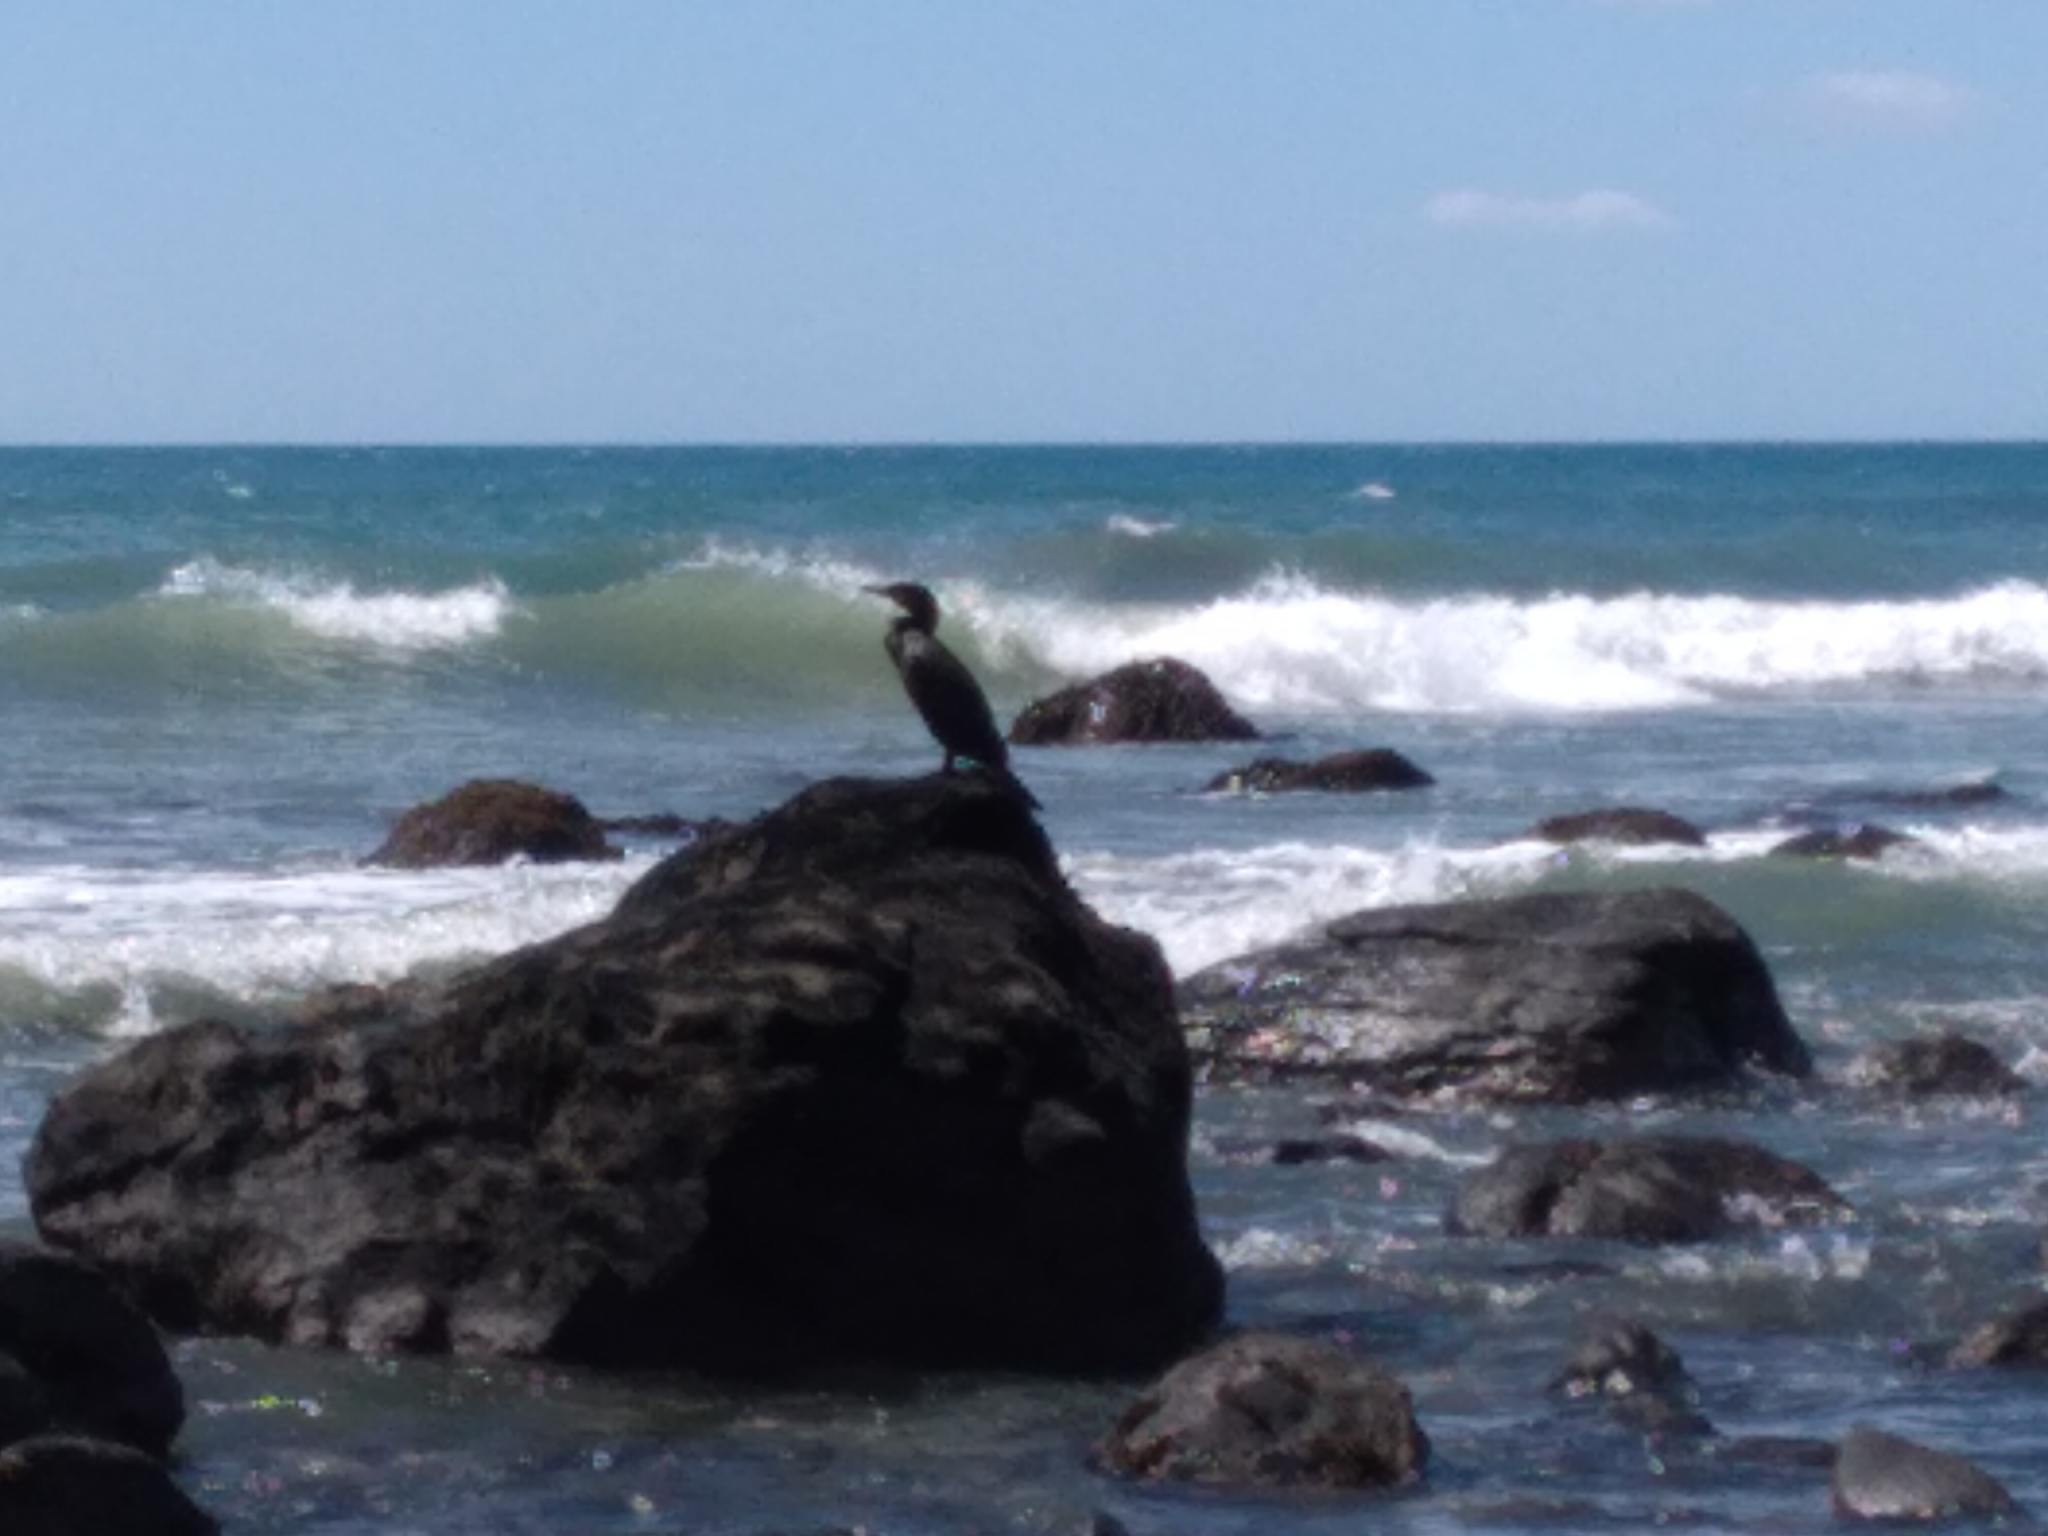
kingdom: Animalia
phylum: Chordata
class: Aves
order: Suliformes
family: Phalacrocoracidae
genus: Phalacrocorax
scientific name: Phalacrocorax carbo
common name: Great cormorant
